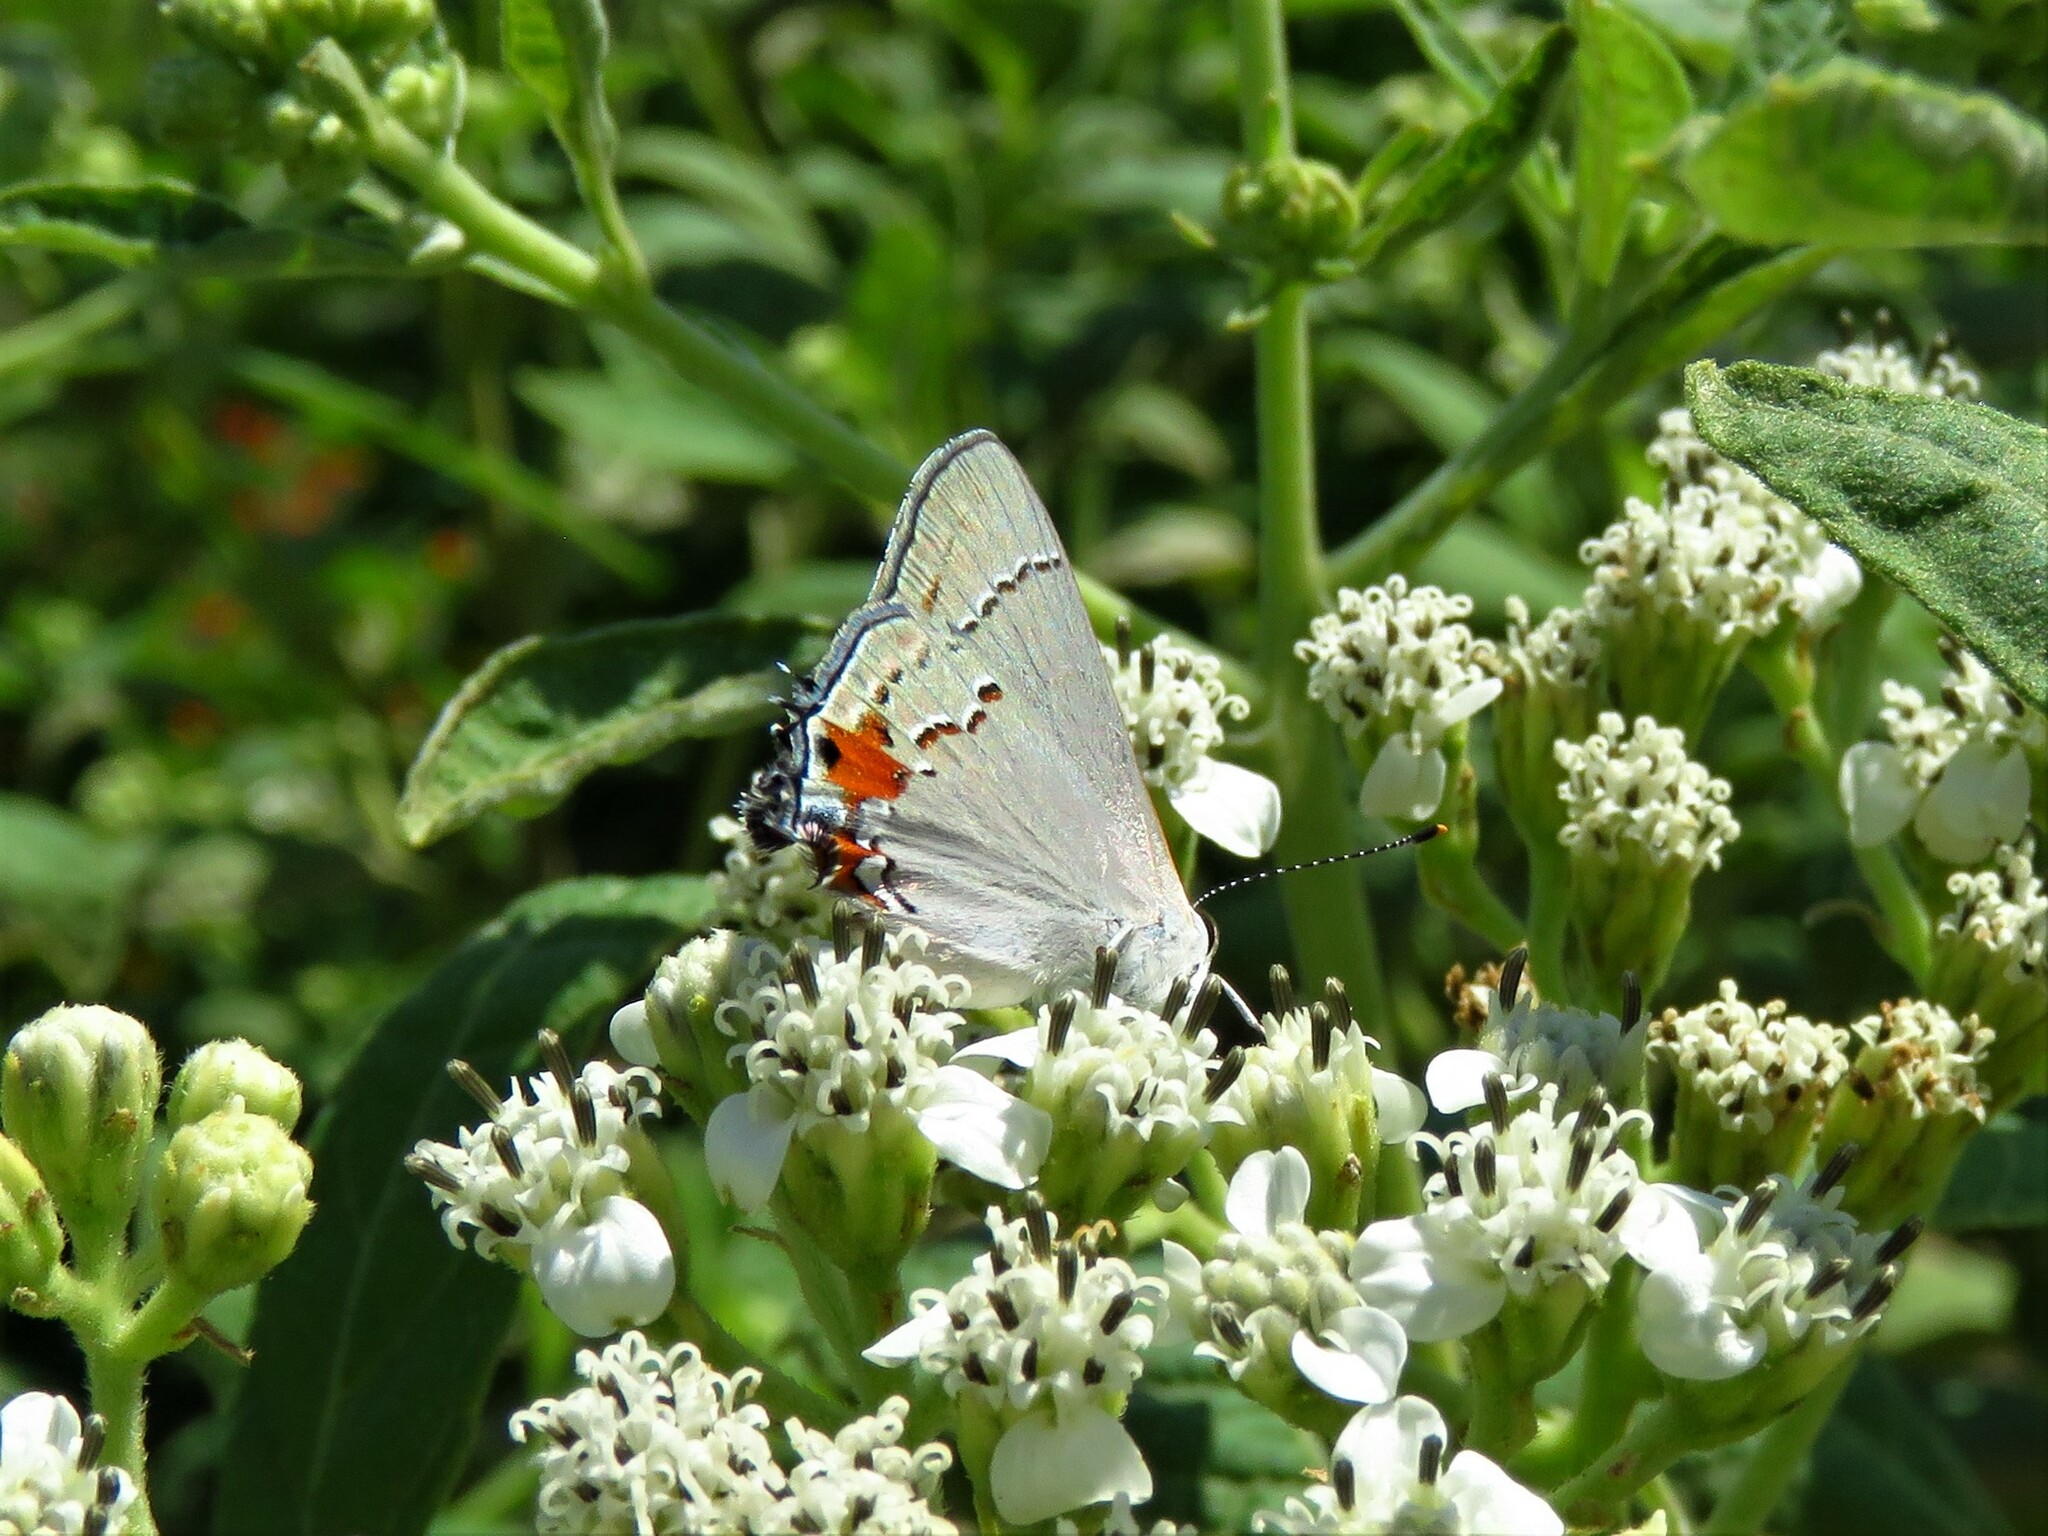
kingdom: Animalia
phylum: Arthropoda
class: Insecta
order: Lepidoptera
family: Lycaenidae
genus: Strymon
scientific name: Strymon melinus
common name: Gray hairstreak
